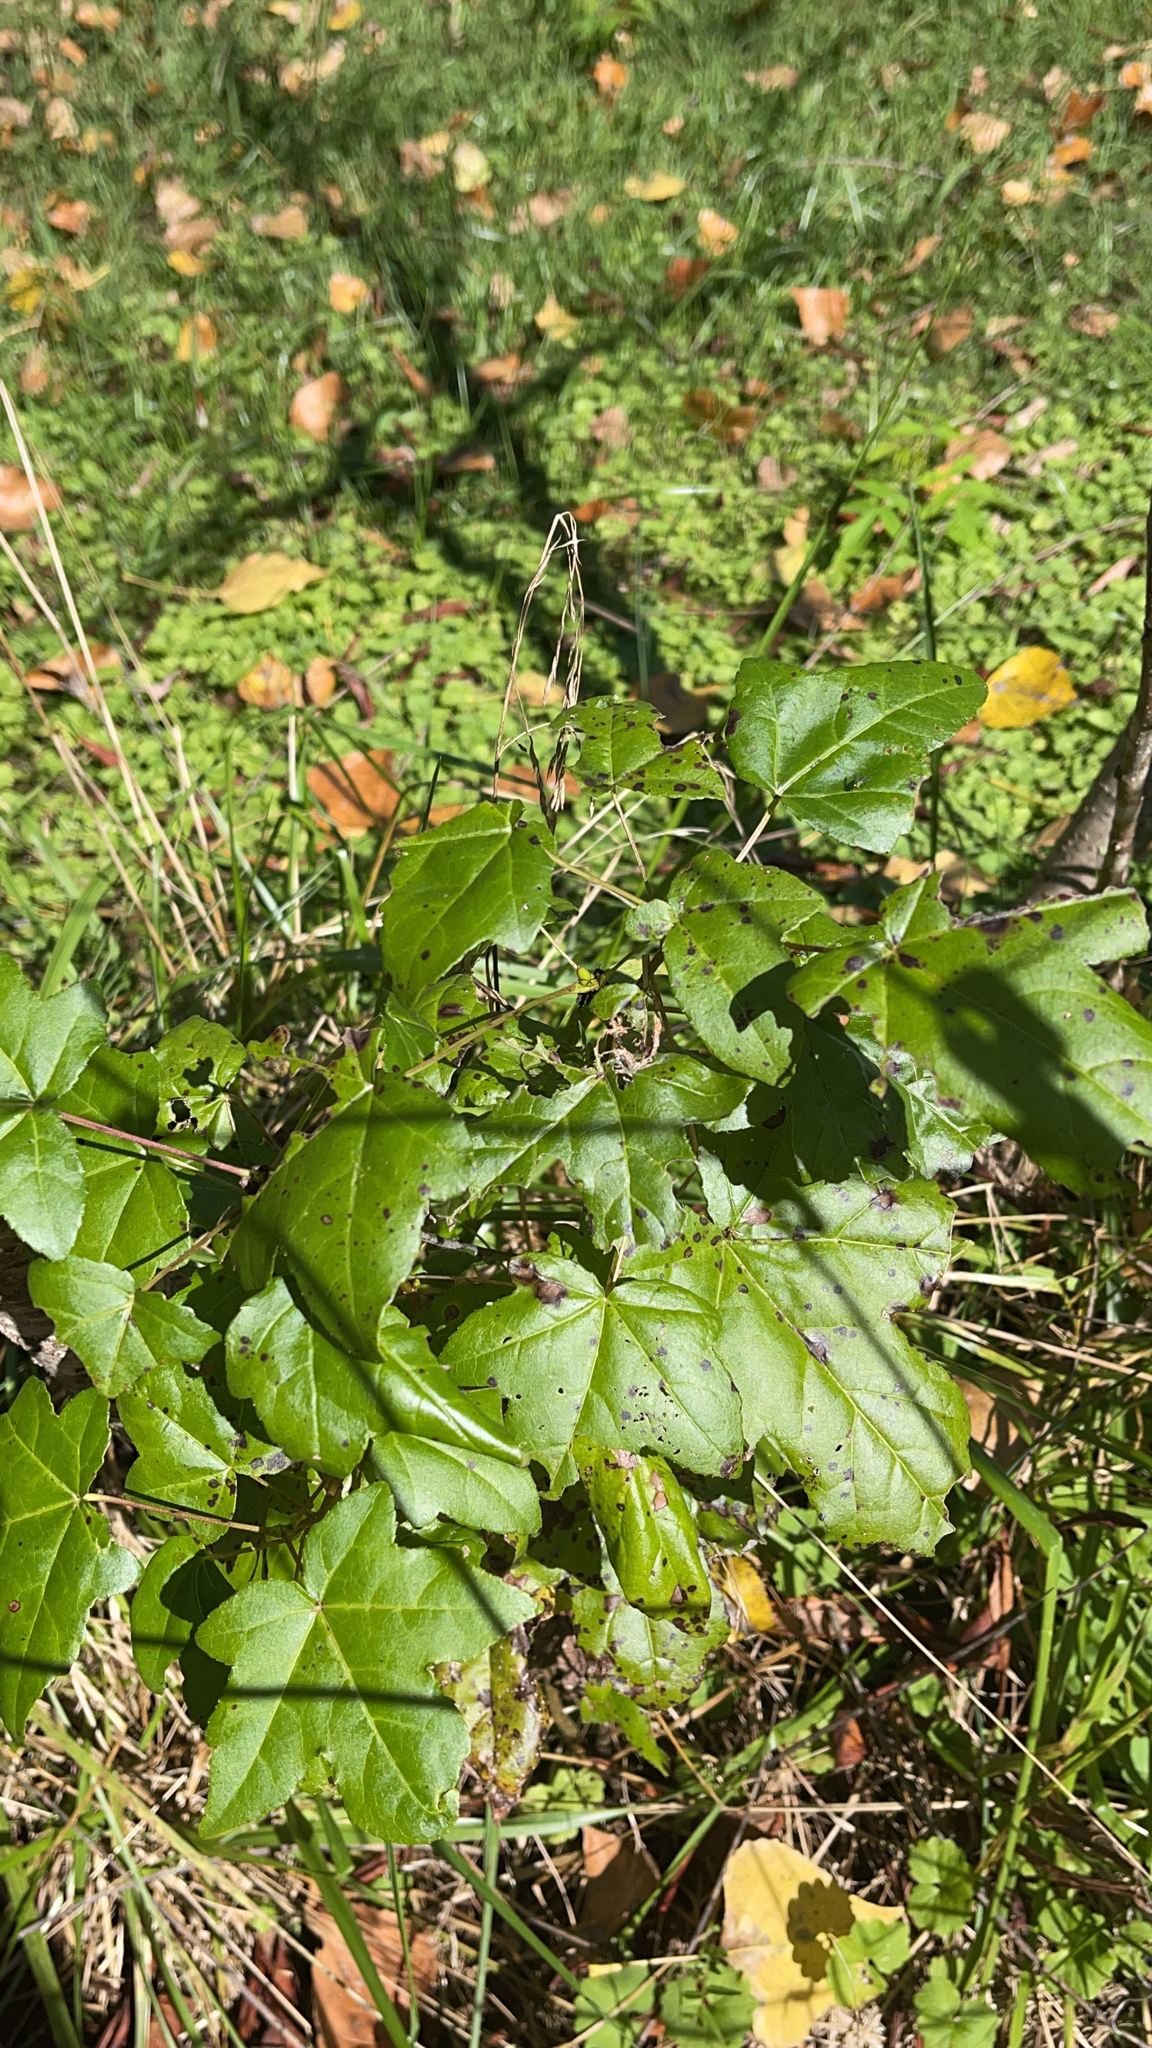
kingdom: Plantae
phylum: Tracheophyta
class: Magnoliopsida
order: Saxifragales
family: Altingiaceae
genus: Liquidambar
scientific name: Liquidambar styraciflua
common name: Sweet gum
